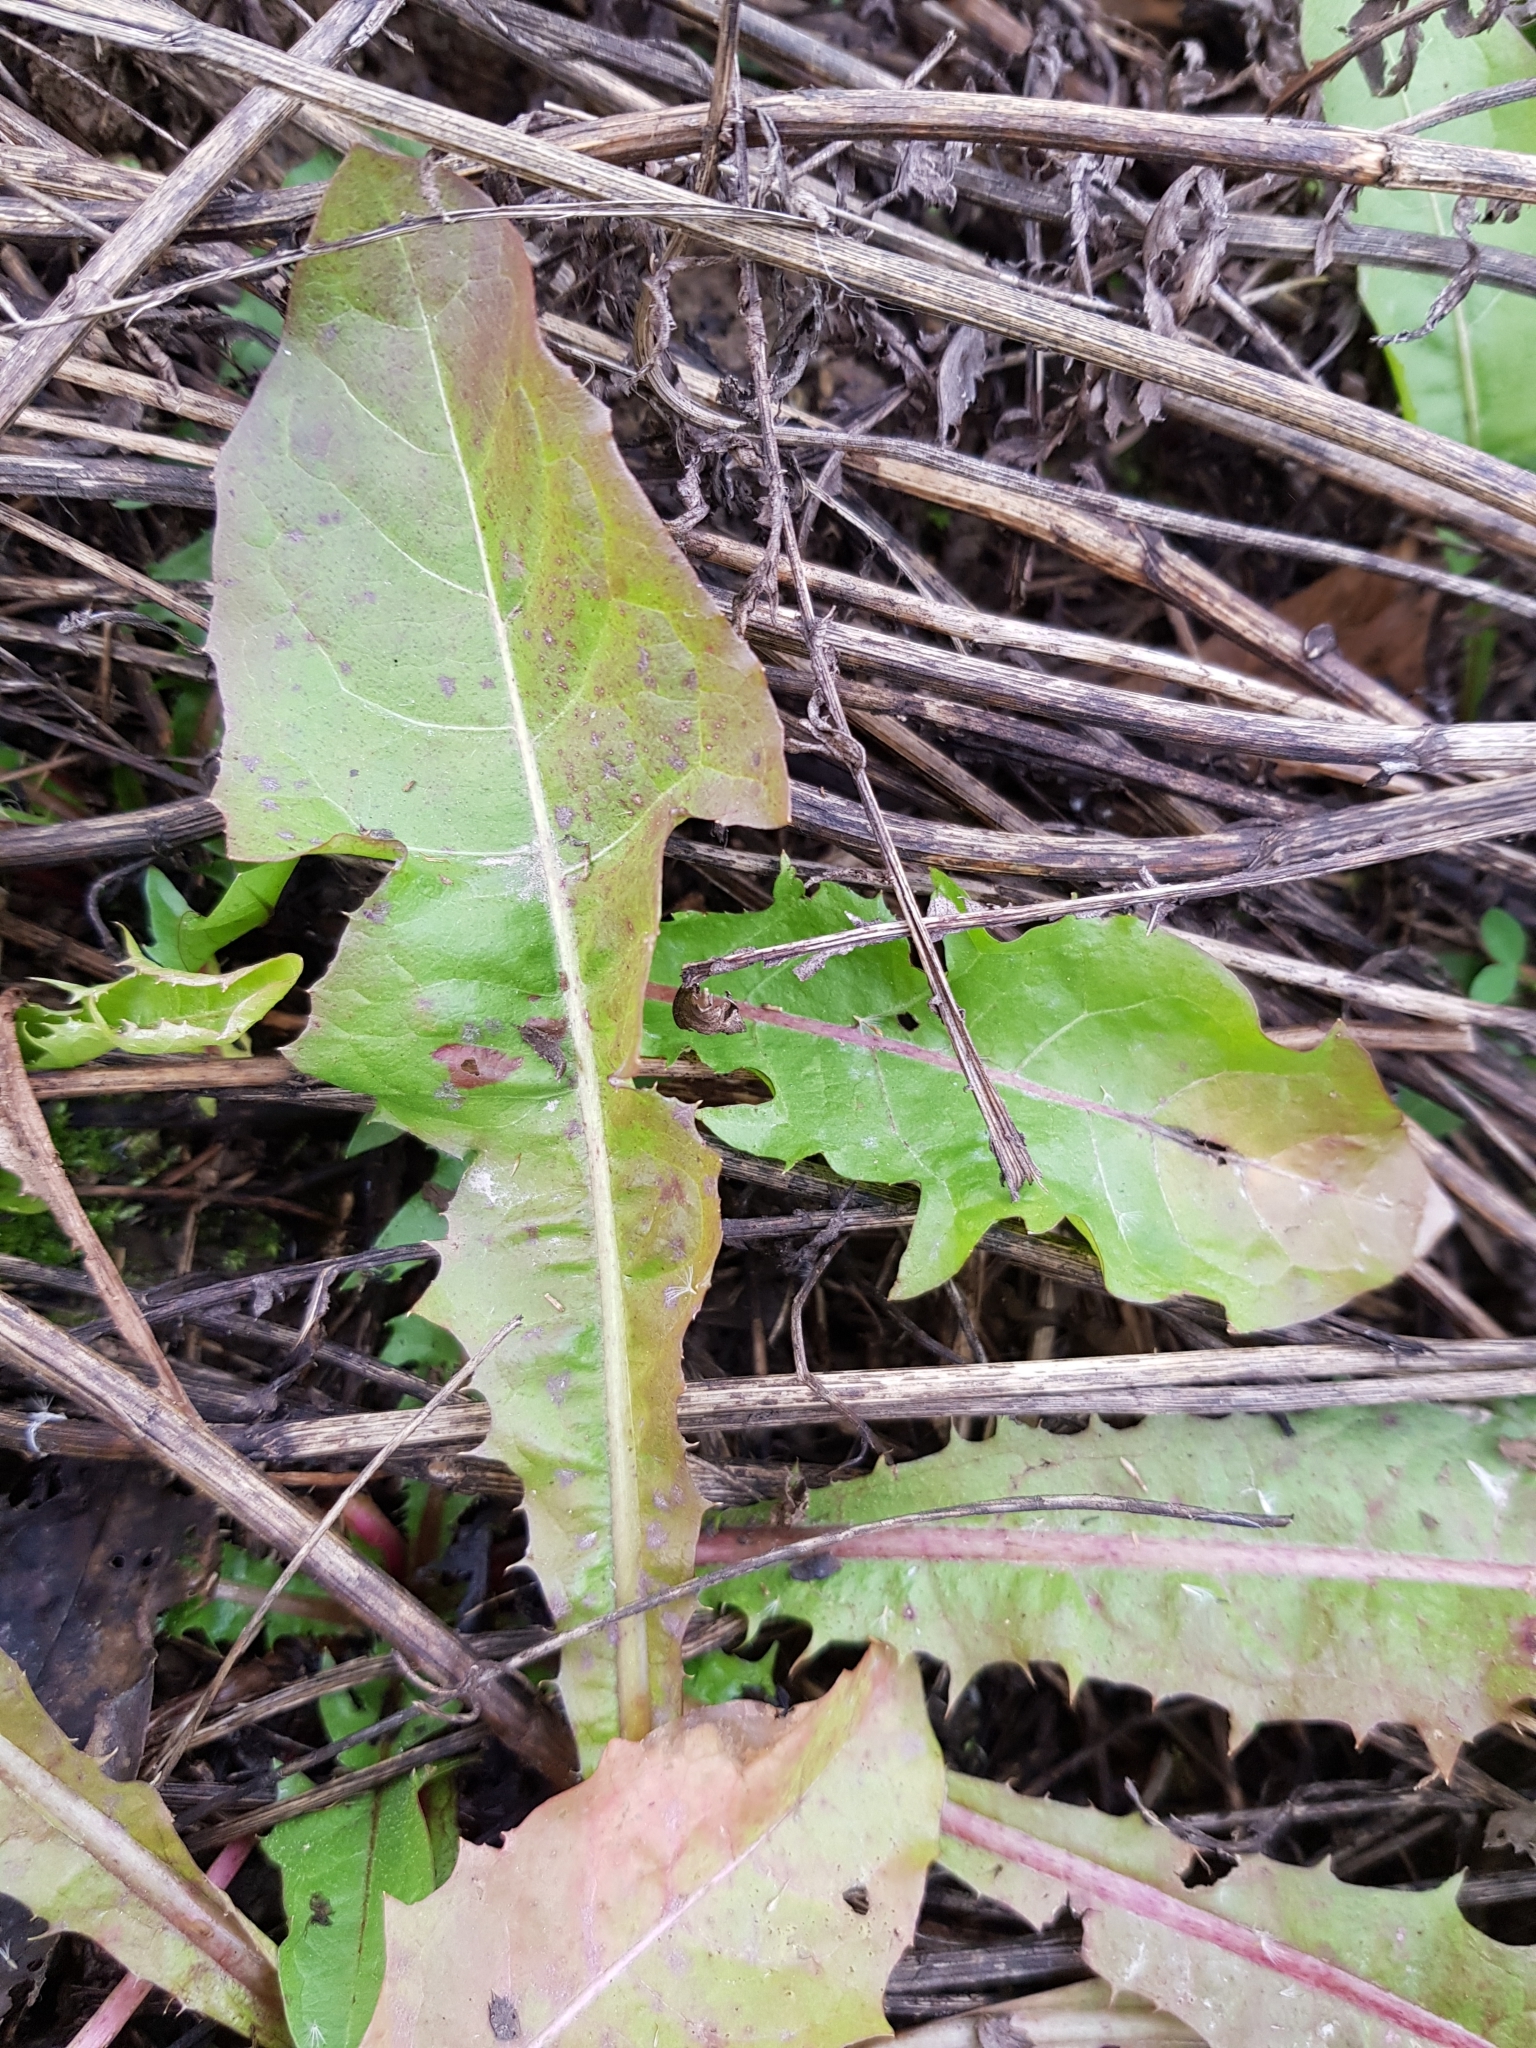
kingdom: Plantae
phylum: Tracheophyta
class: Magnoliopsida
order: Asterales
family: Asteraceae
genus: Taraxacum
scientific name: Taraxacum officinale
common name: Common dandelion
